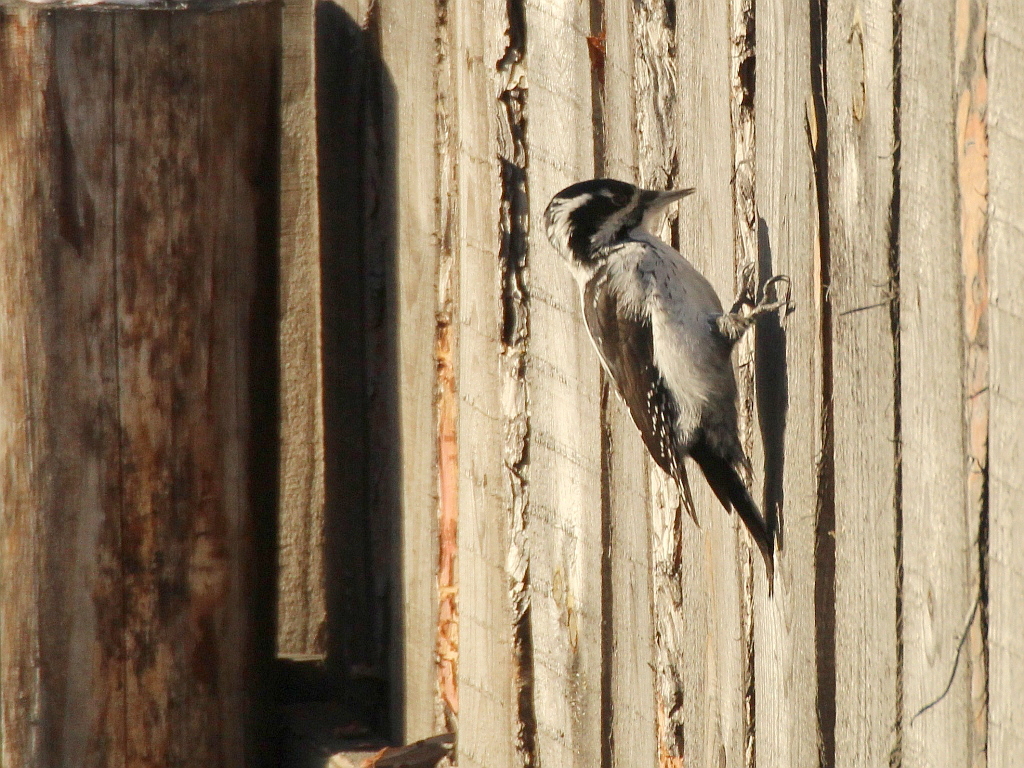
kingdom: Animalia
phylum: Chordata
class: Aves
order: Piciformes
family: Picidae
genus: Picoides
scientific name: Picoides tridactylus
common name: Eurasian three-toed woodpecker
